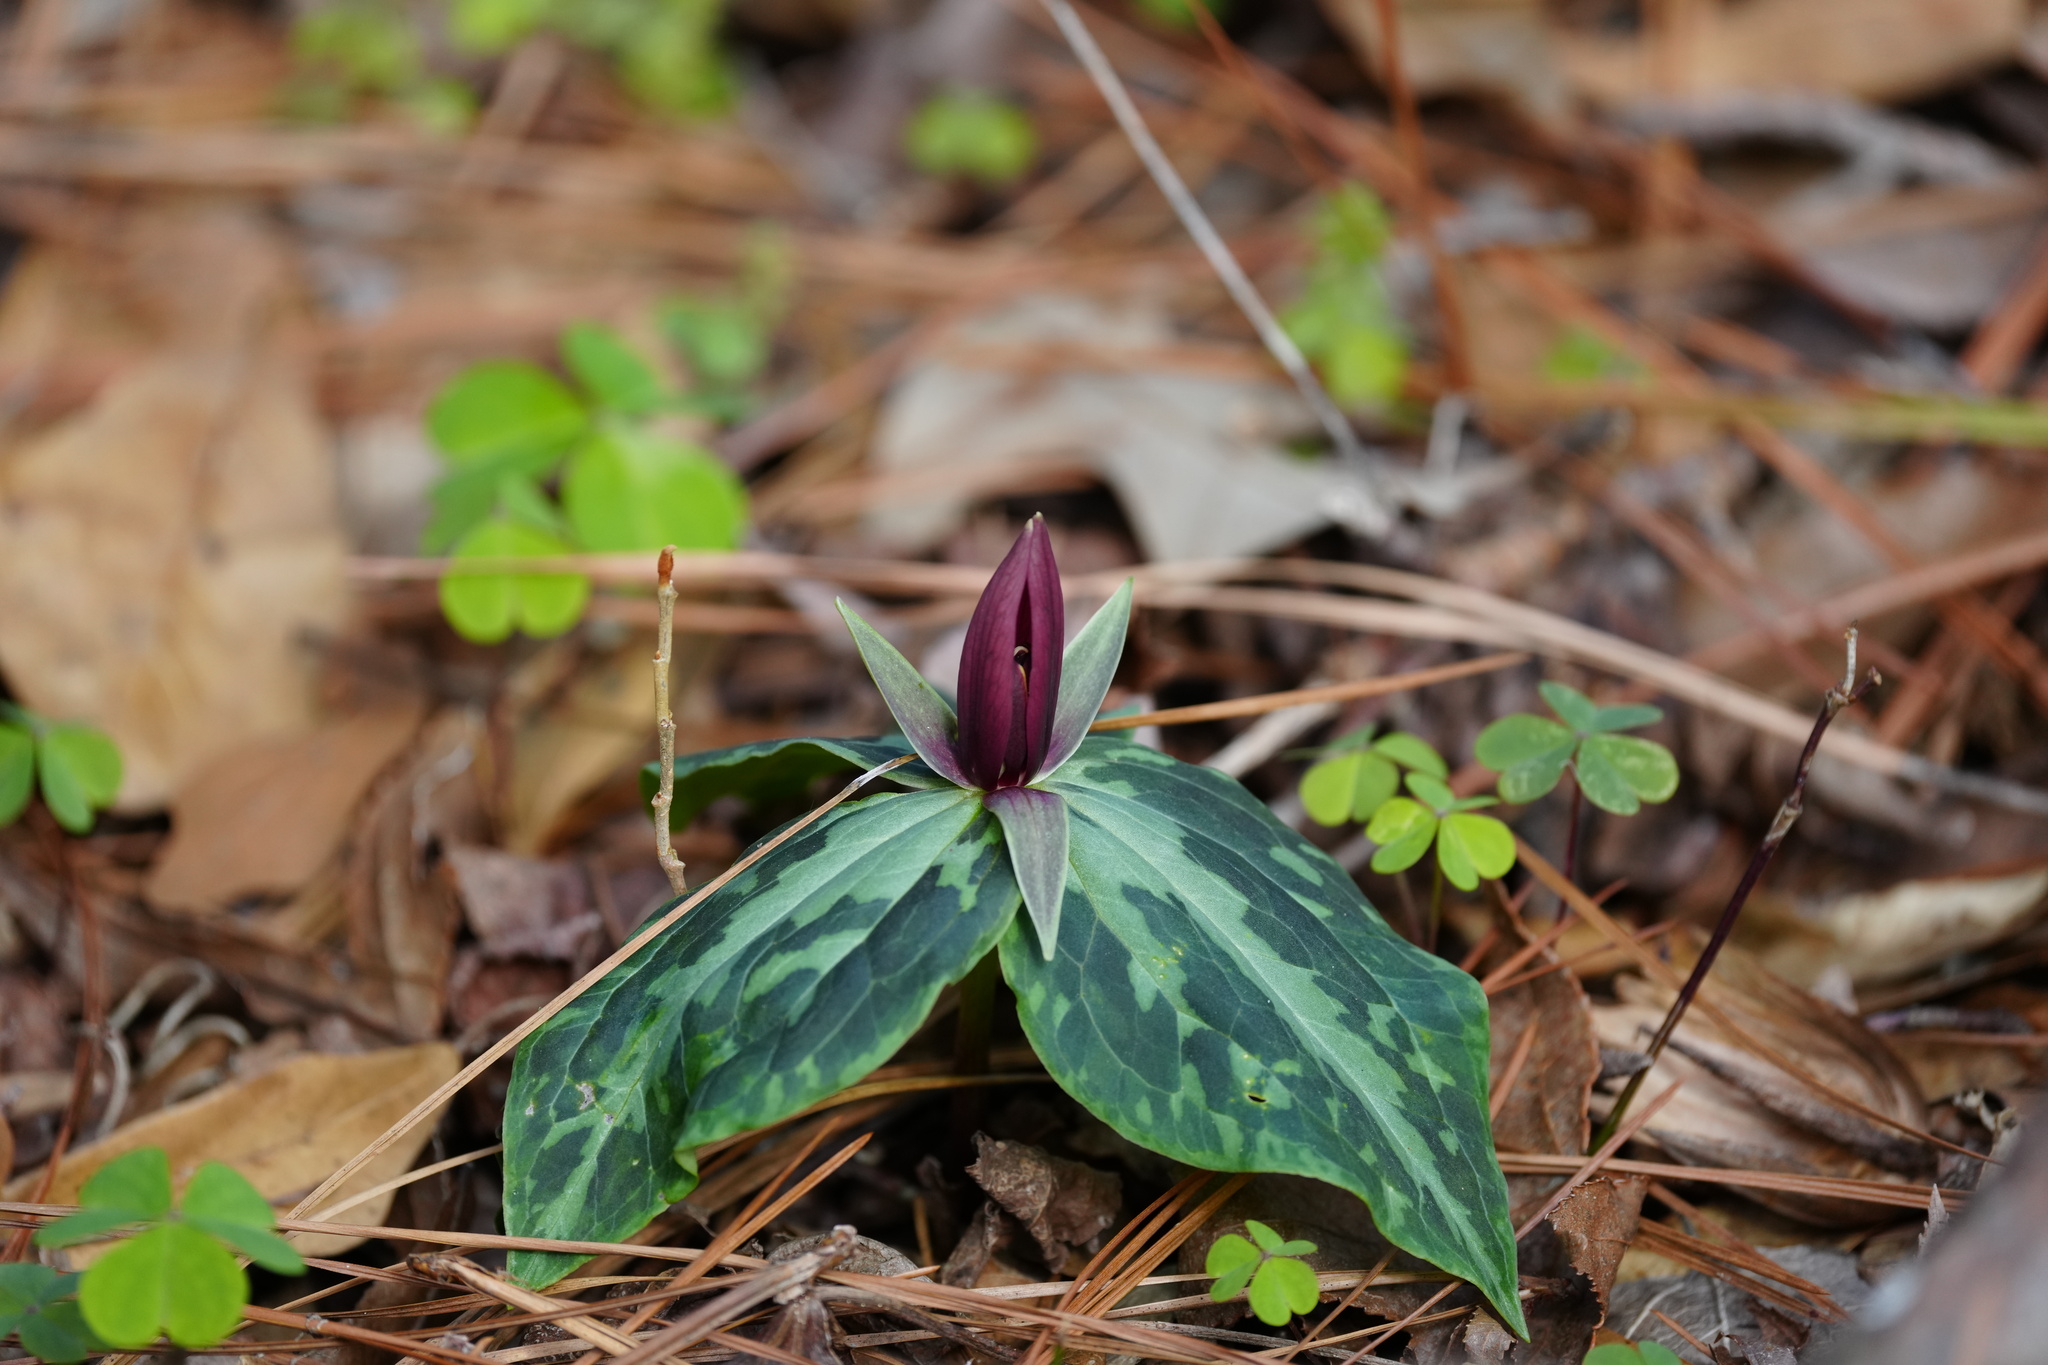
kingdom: Plantae
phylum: Tracheophyta
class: Liliopsida
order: Liliales
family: Melanthiaceae
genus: Trillium
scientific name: Trillium foetidissimum
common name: Mississippi river trillium
